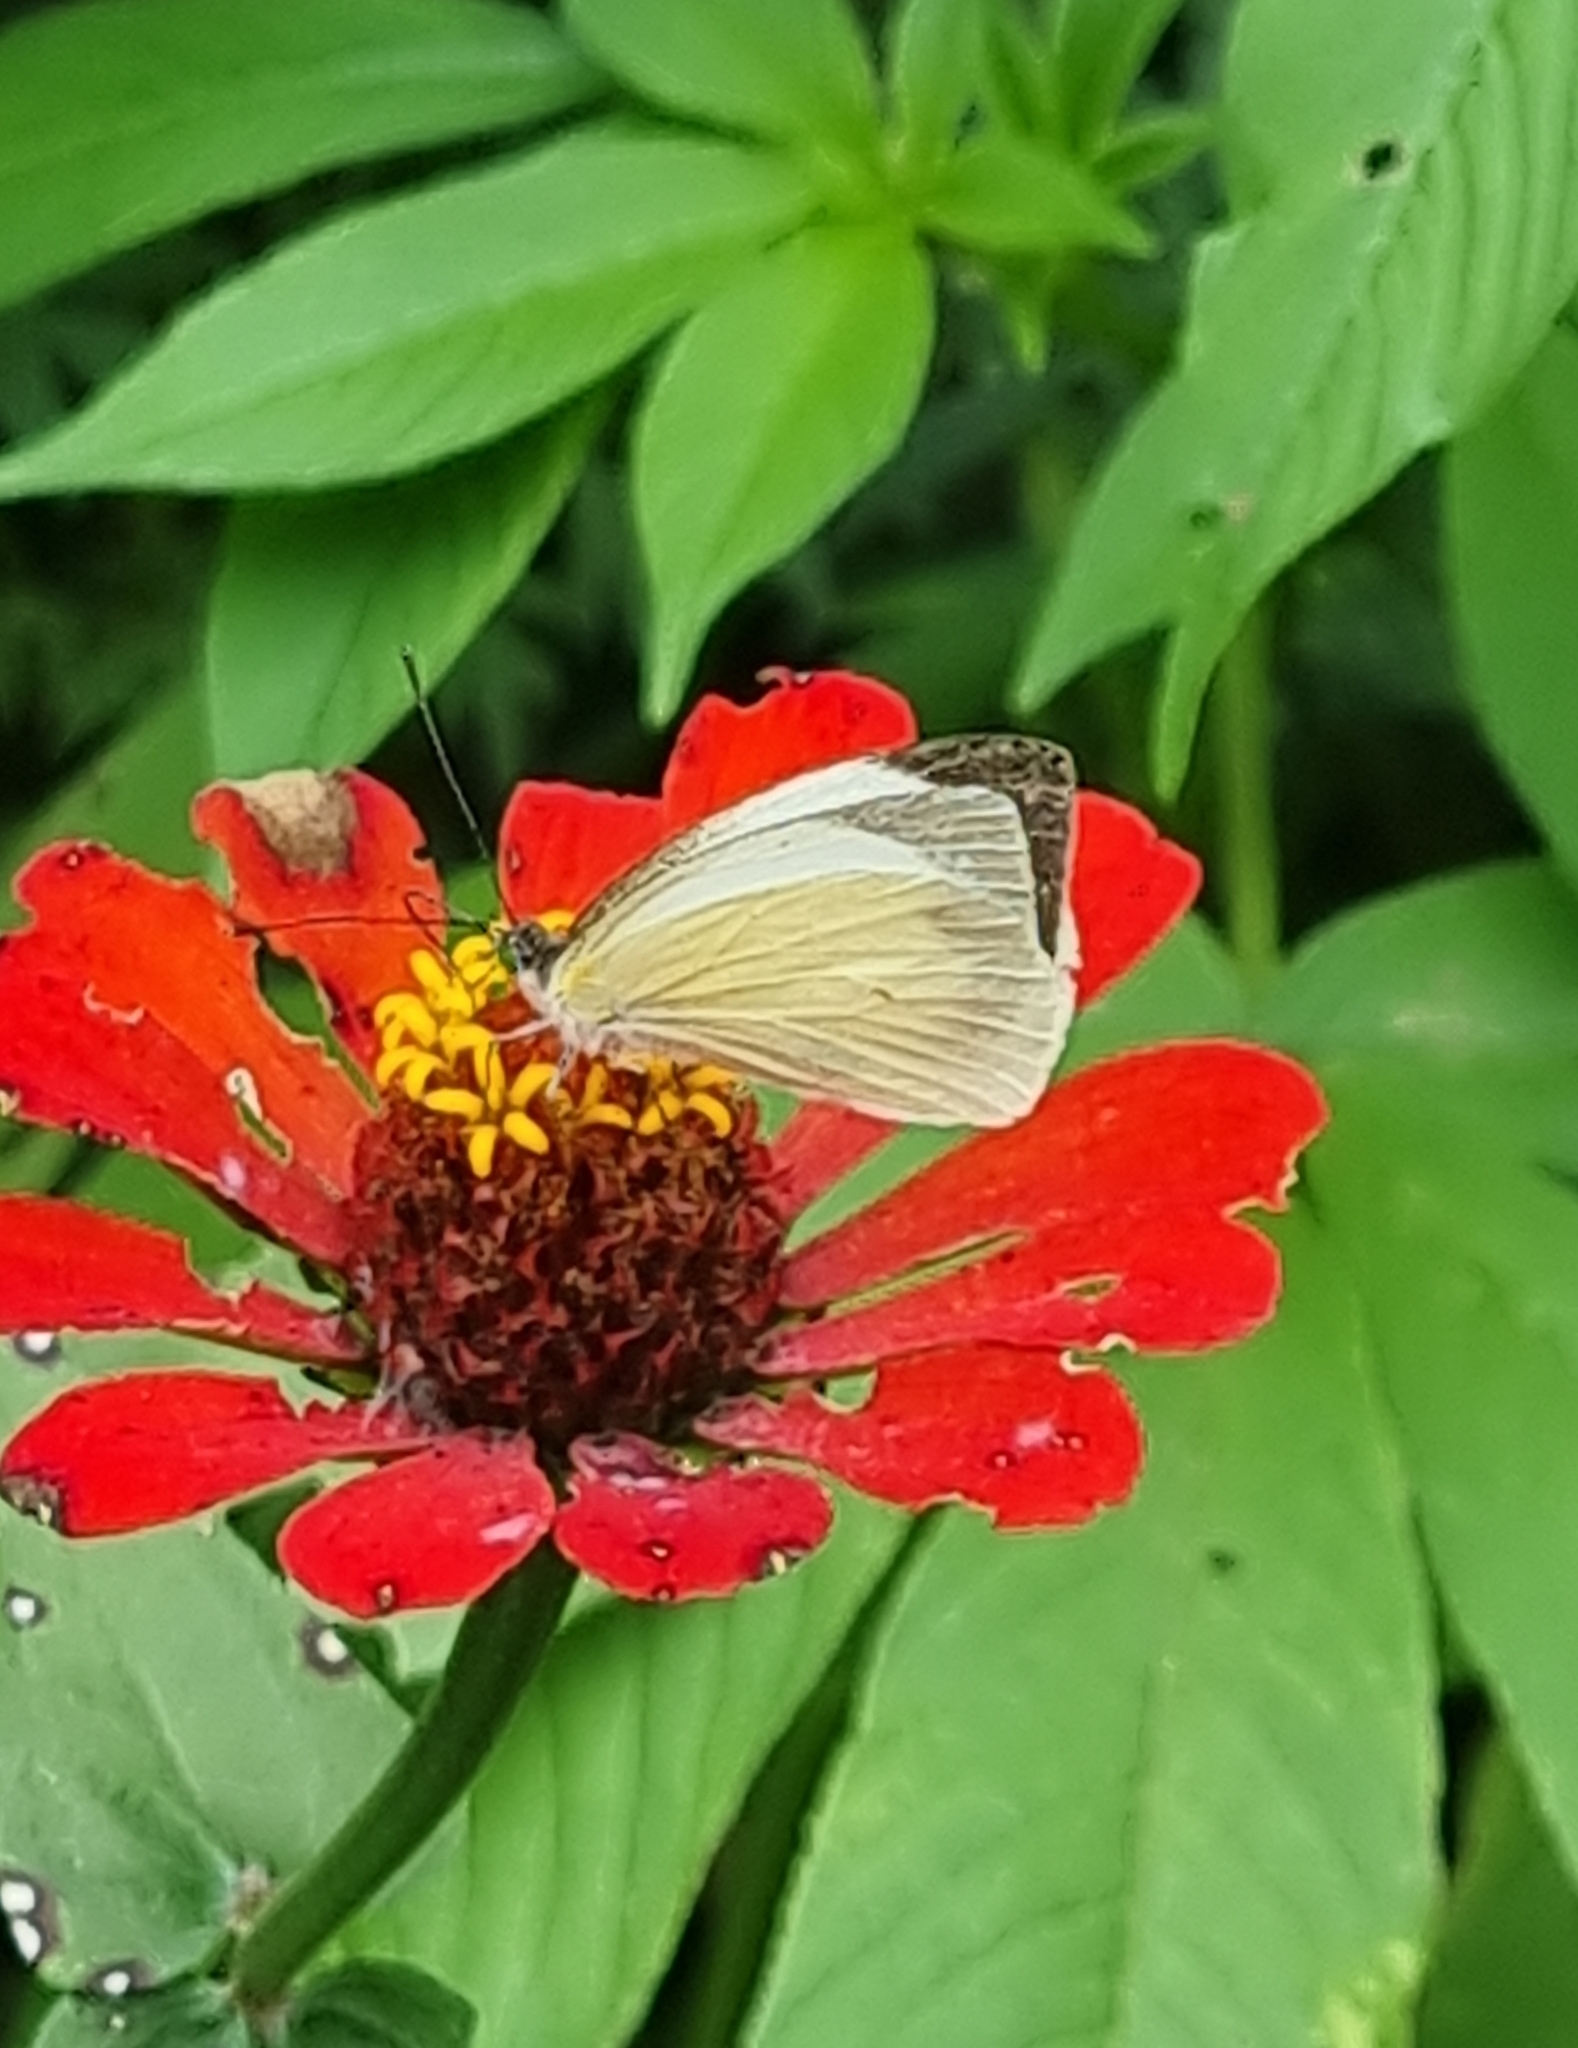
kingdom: Animalia
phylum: Arthropoda
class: Insecta
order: Lepidoptera
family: Pieridae
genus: Leptophobia
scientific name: Leptophobia aripa
